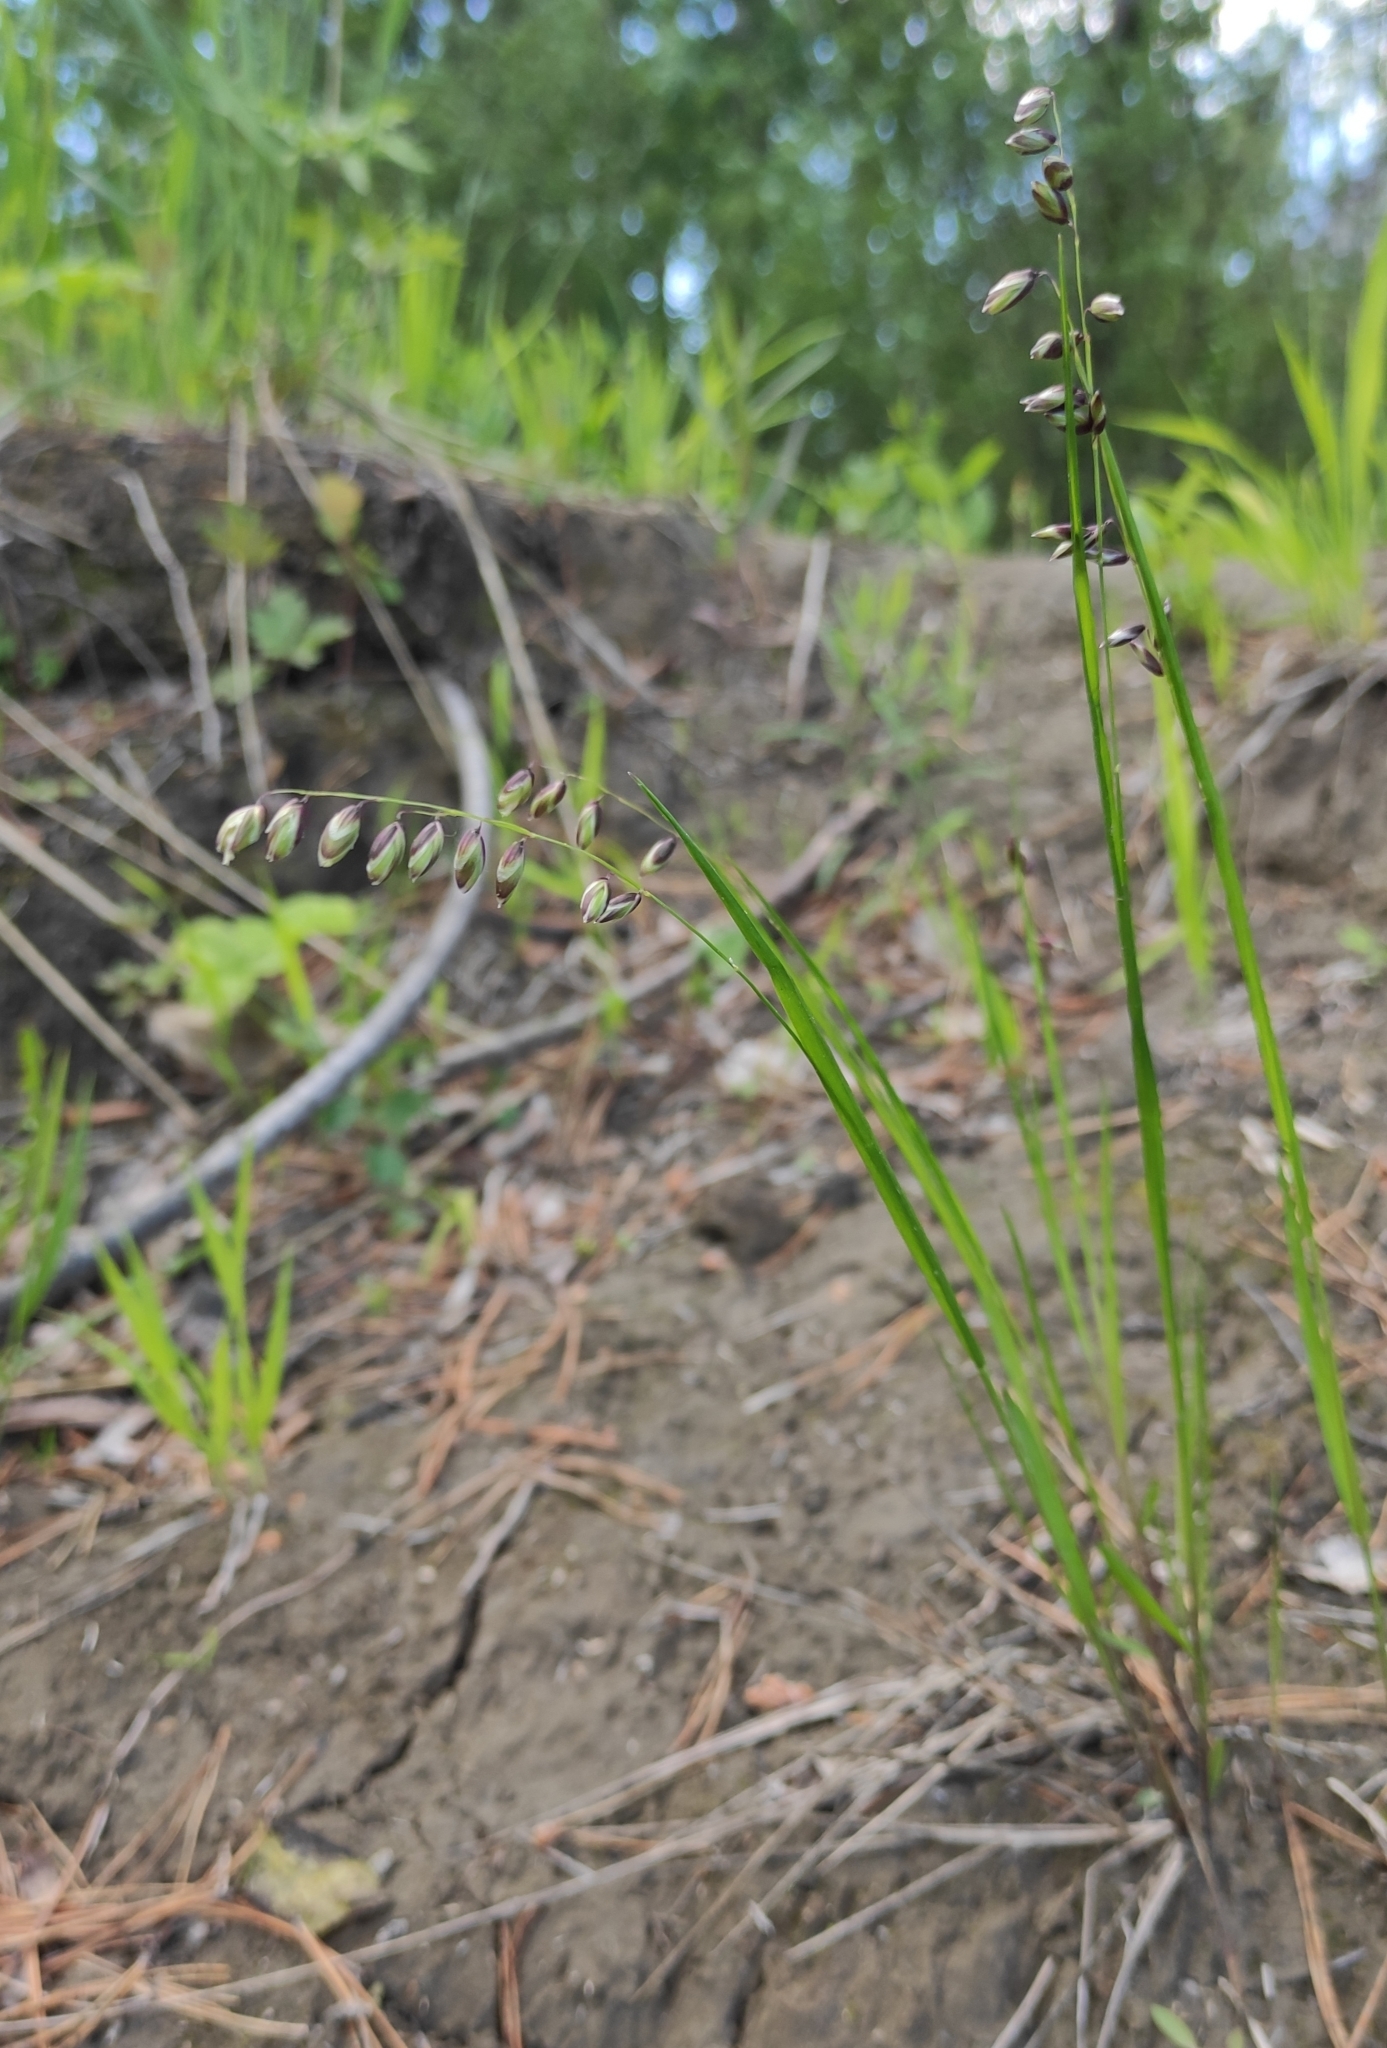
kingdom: Plantae
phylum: Tracheophyta
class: Liliopsida
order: Poales
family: Poaceae
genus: Melica
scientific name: Melica nutans
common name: Mountain melick
